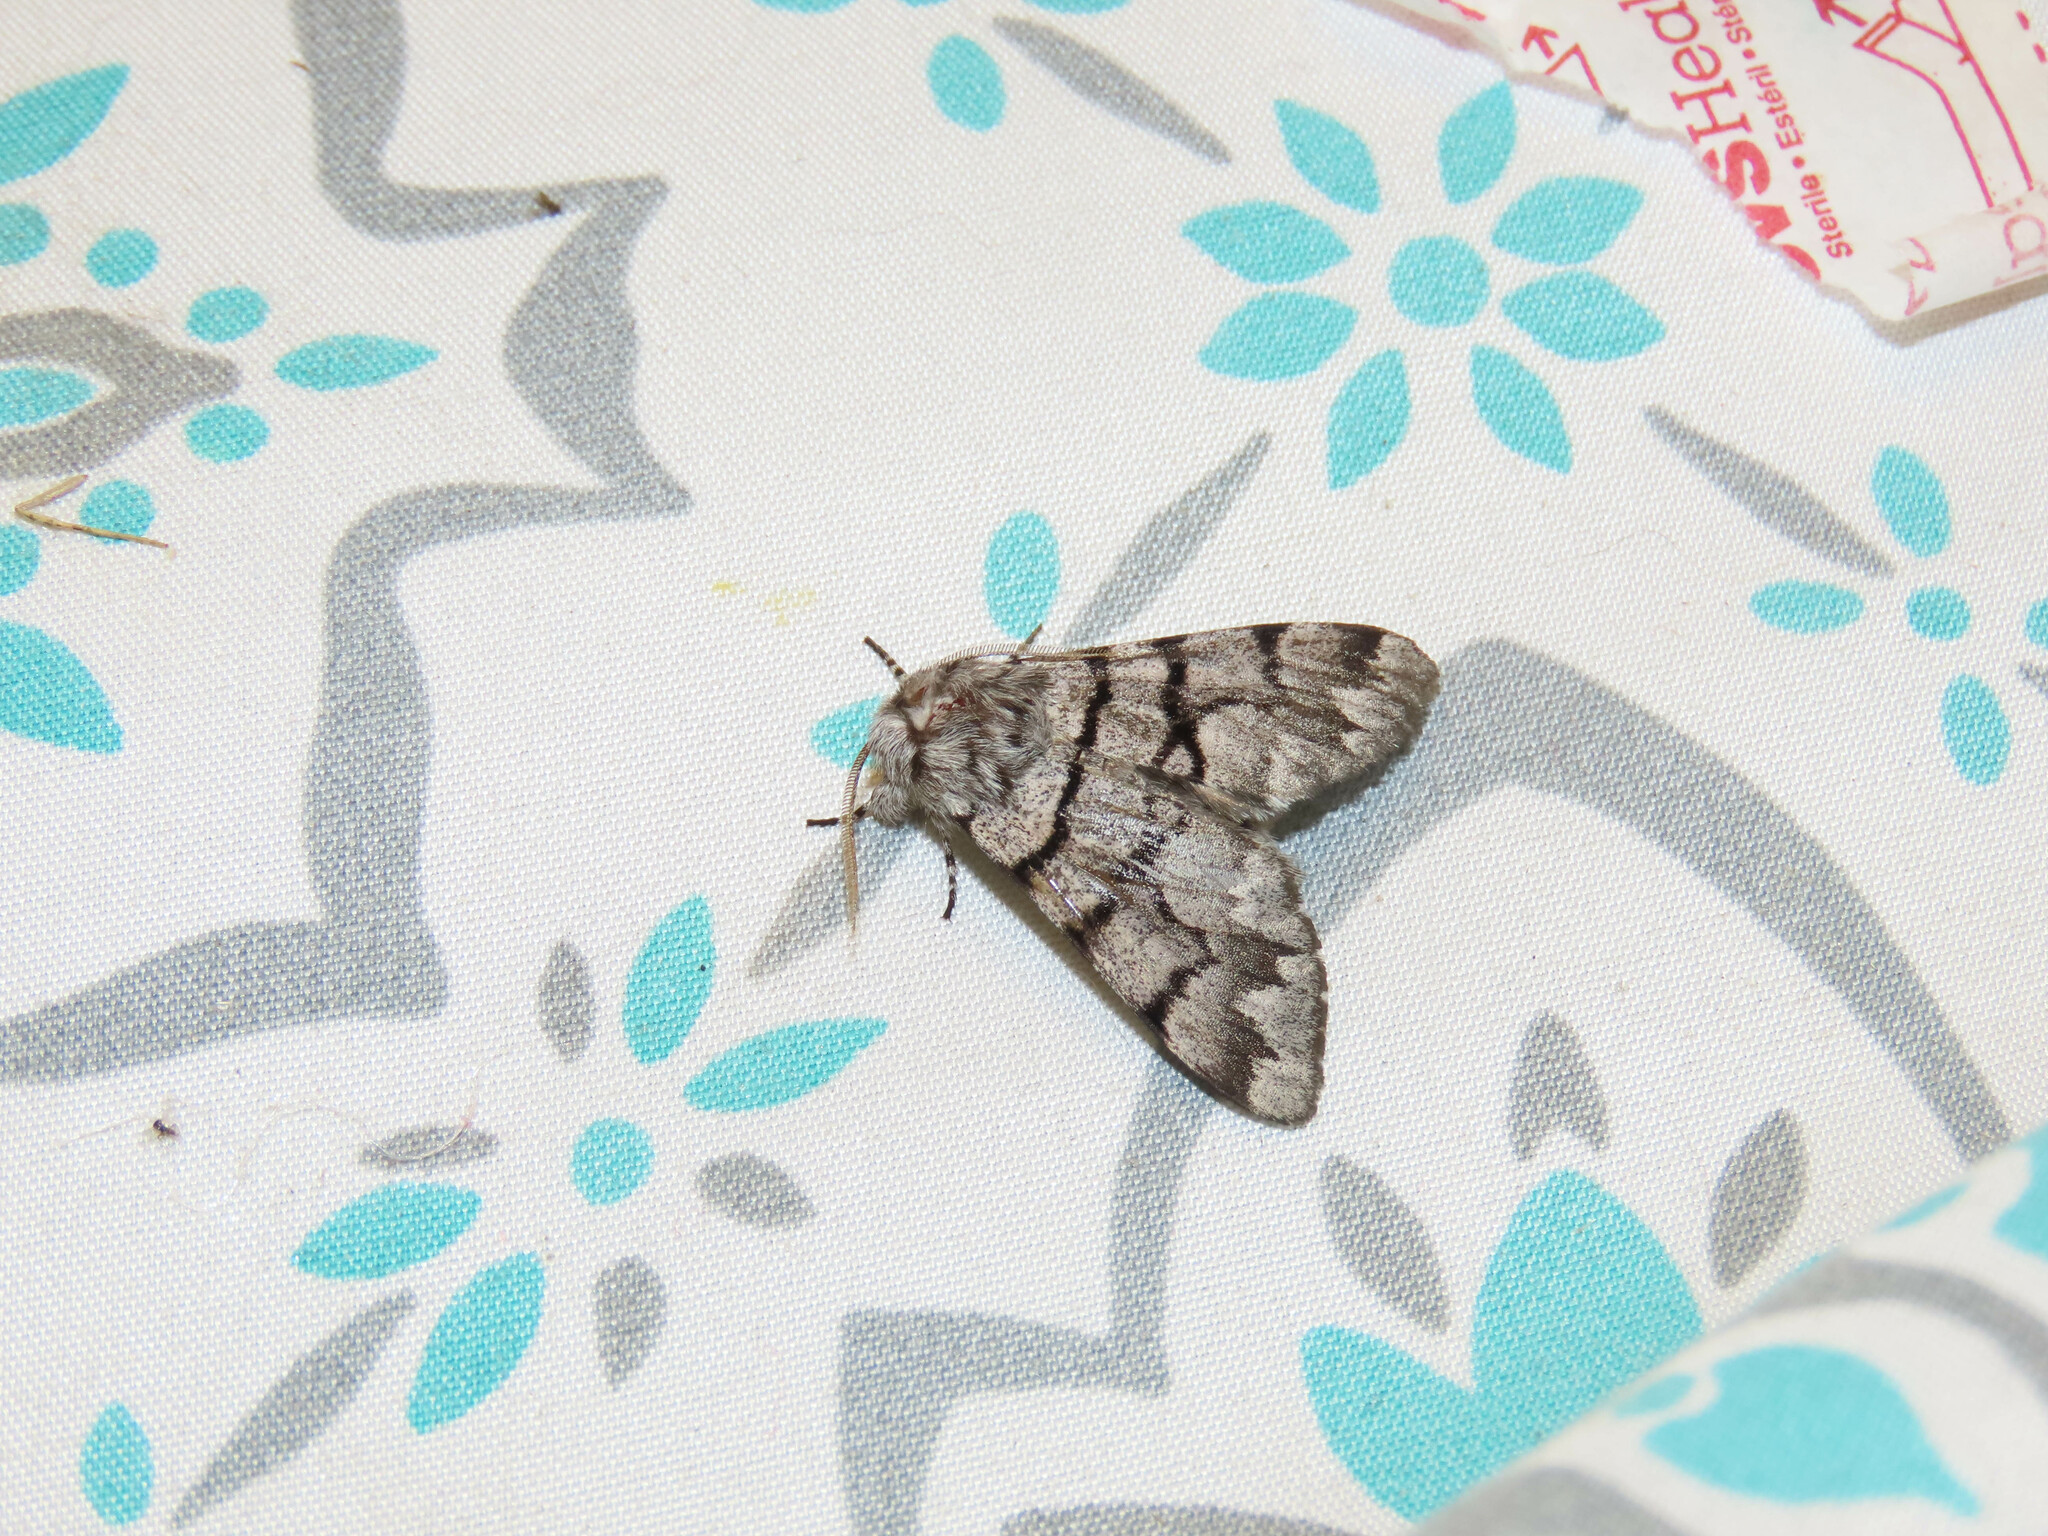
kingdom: Animalia
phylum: Arthropoda
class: Insecta
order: Lepidoptera
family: Noctuidae
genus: Panthea
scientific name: Panthea furcilla
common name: Eastern panthea moth
